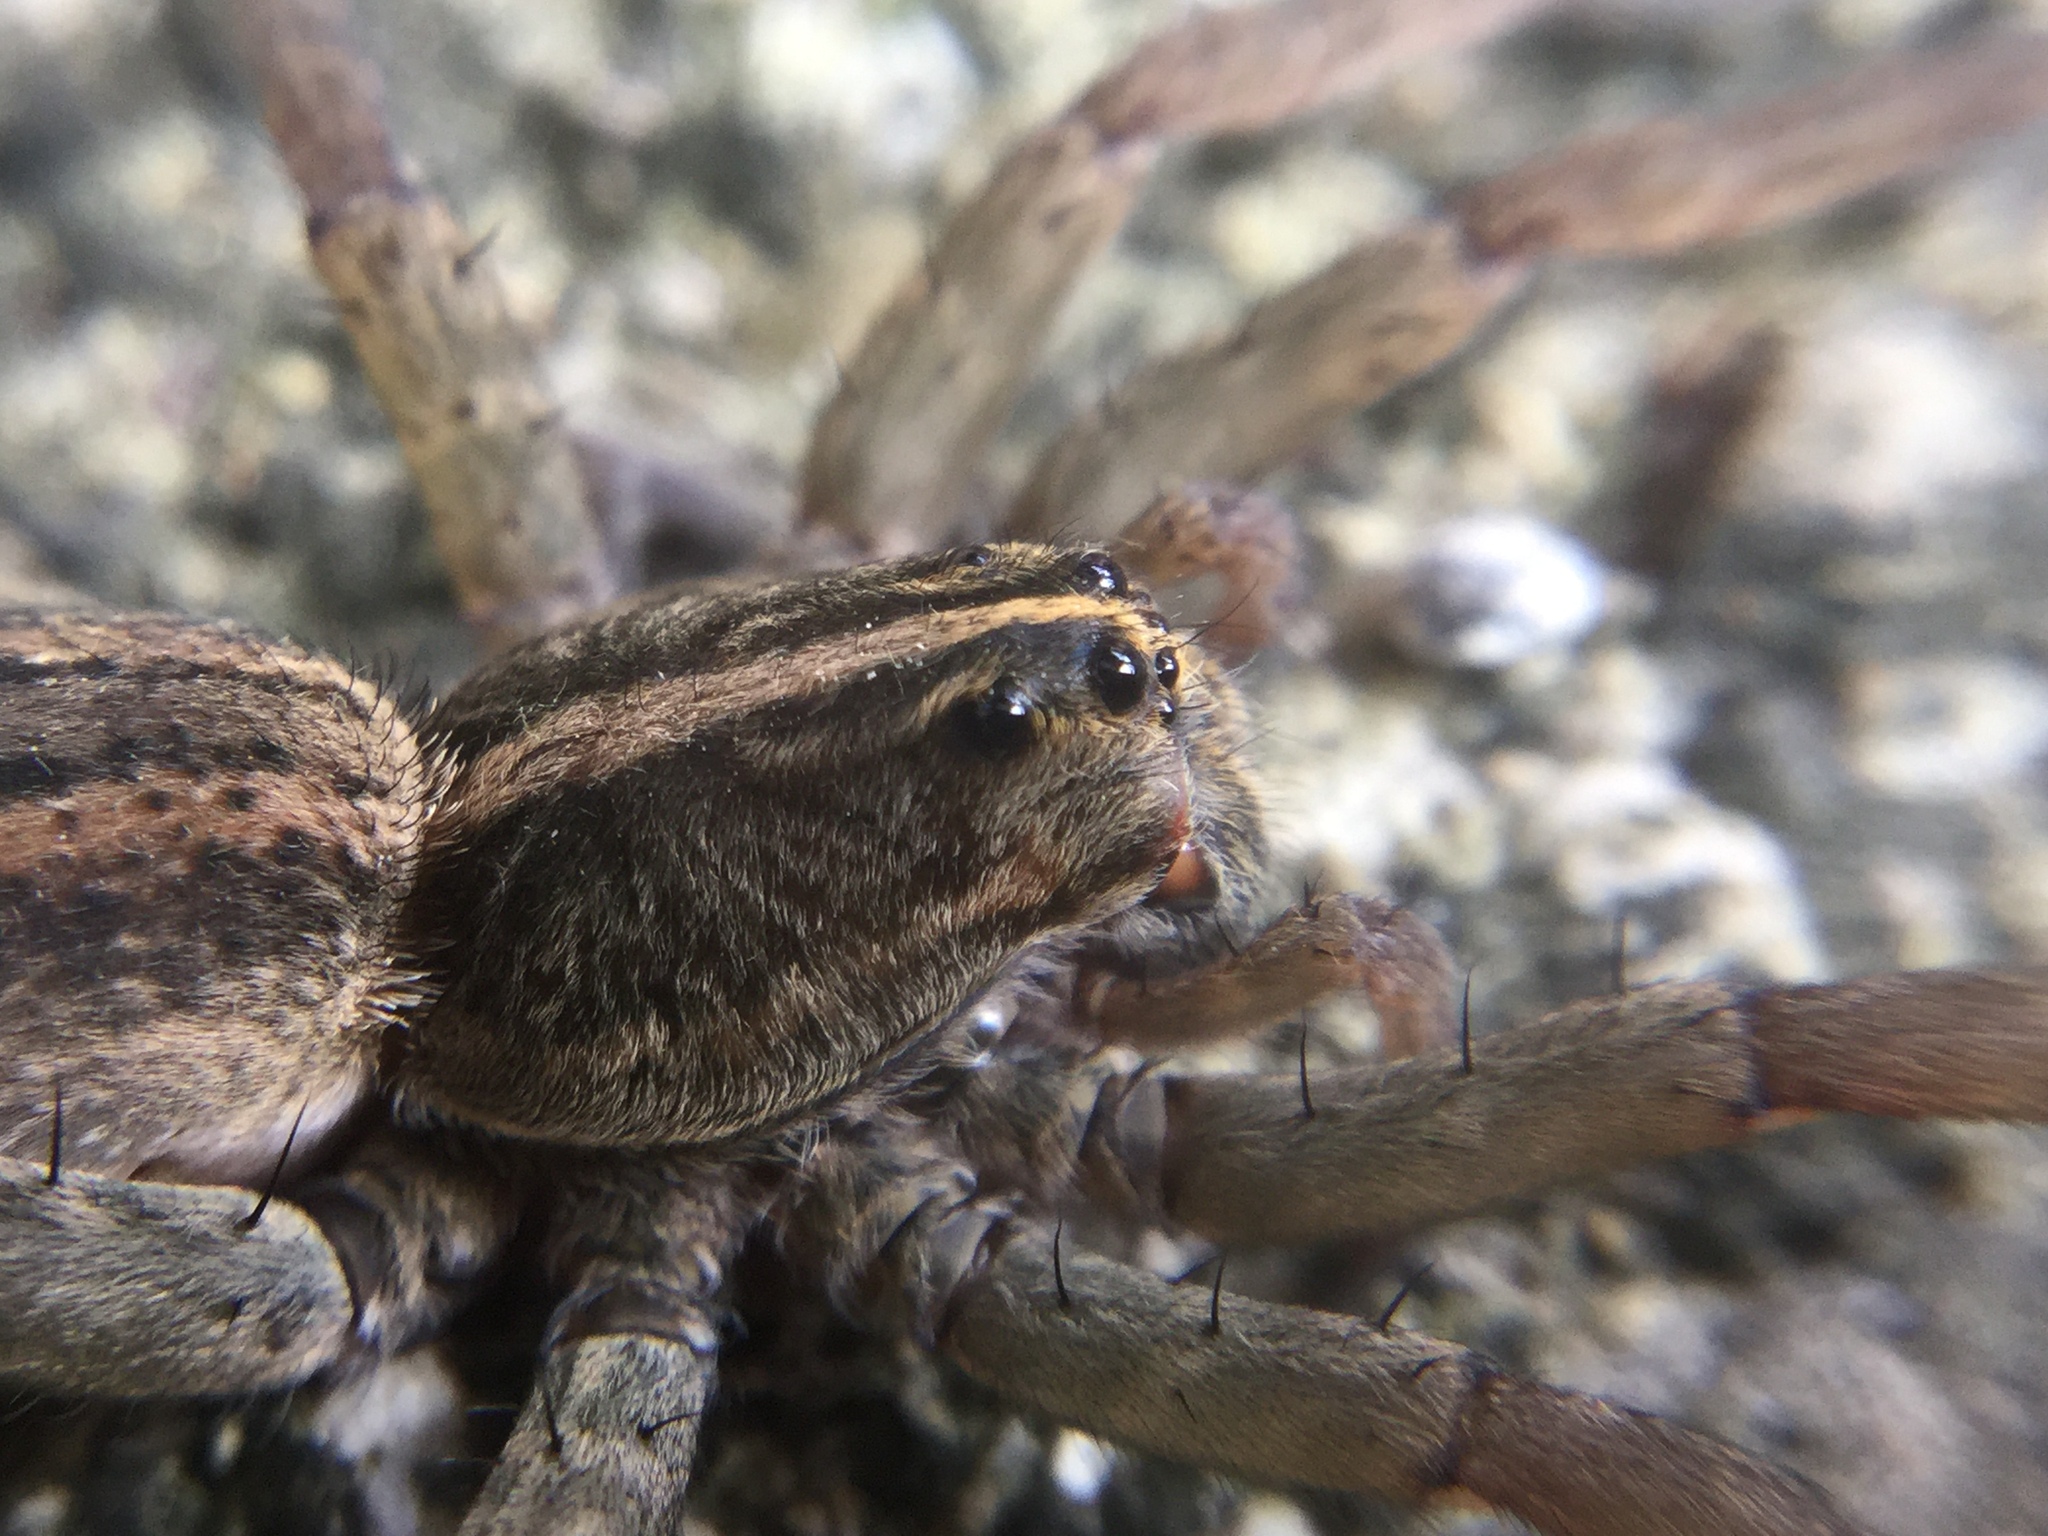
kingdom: Animalia
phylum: Arthropoda
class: Arachnida
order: Araneae
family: Lycosidae
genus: Tigrosa
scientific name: Tigrosa helluo
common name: Wetland giant wolf spider
